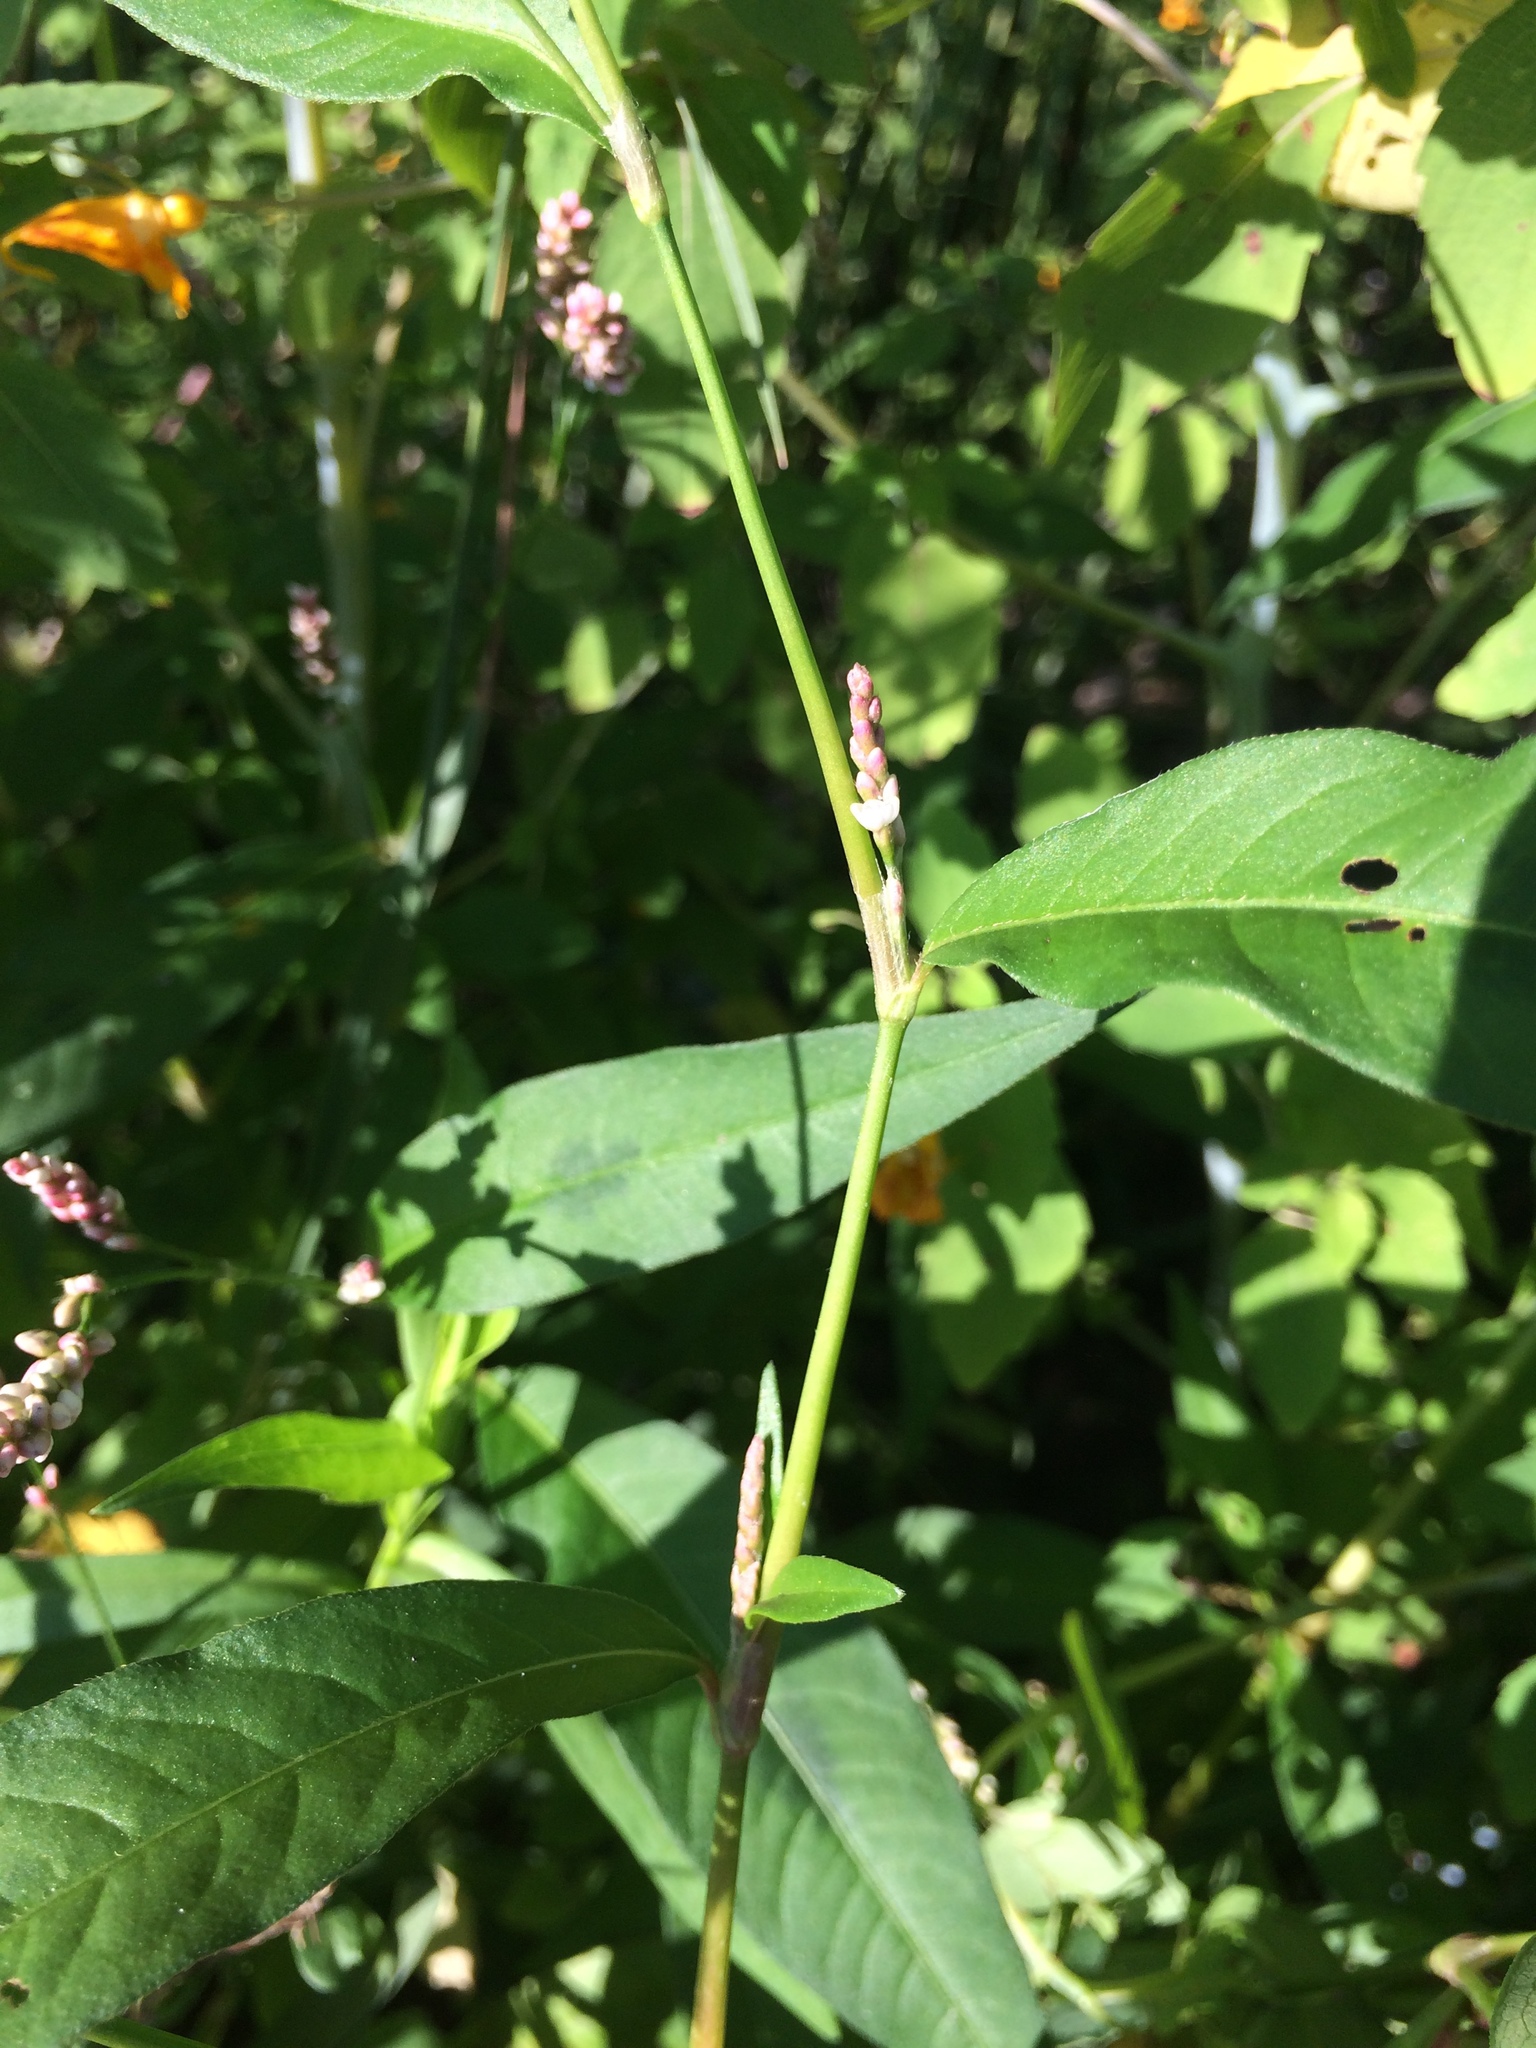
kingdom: Plantae
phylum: Tracheophyta
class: Magnoliopsida
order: Caryophyllales
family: Polygonaceae
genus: Persicaria
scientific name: Persicaria maculosa
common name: Redshank
